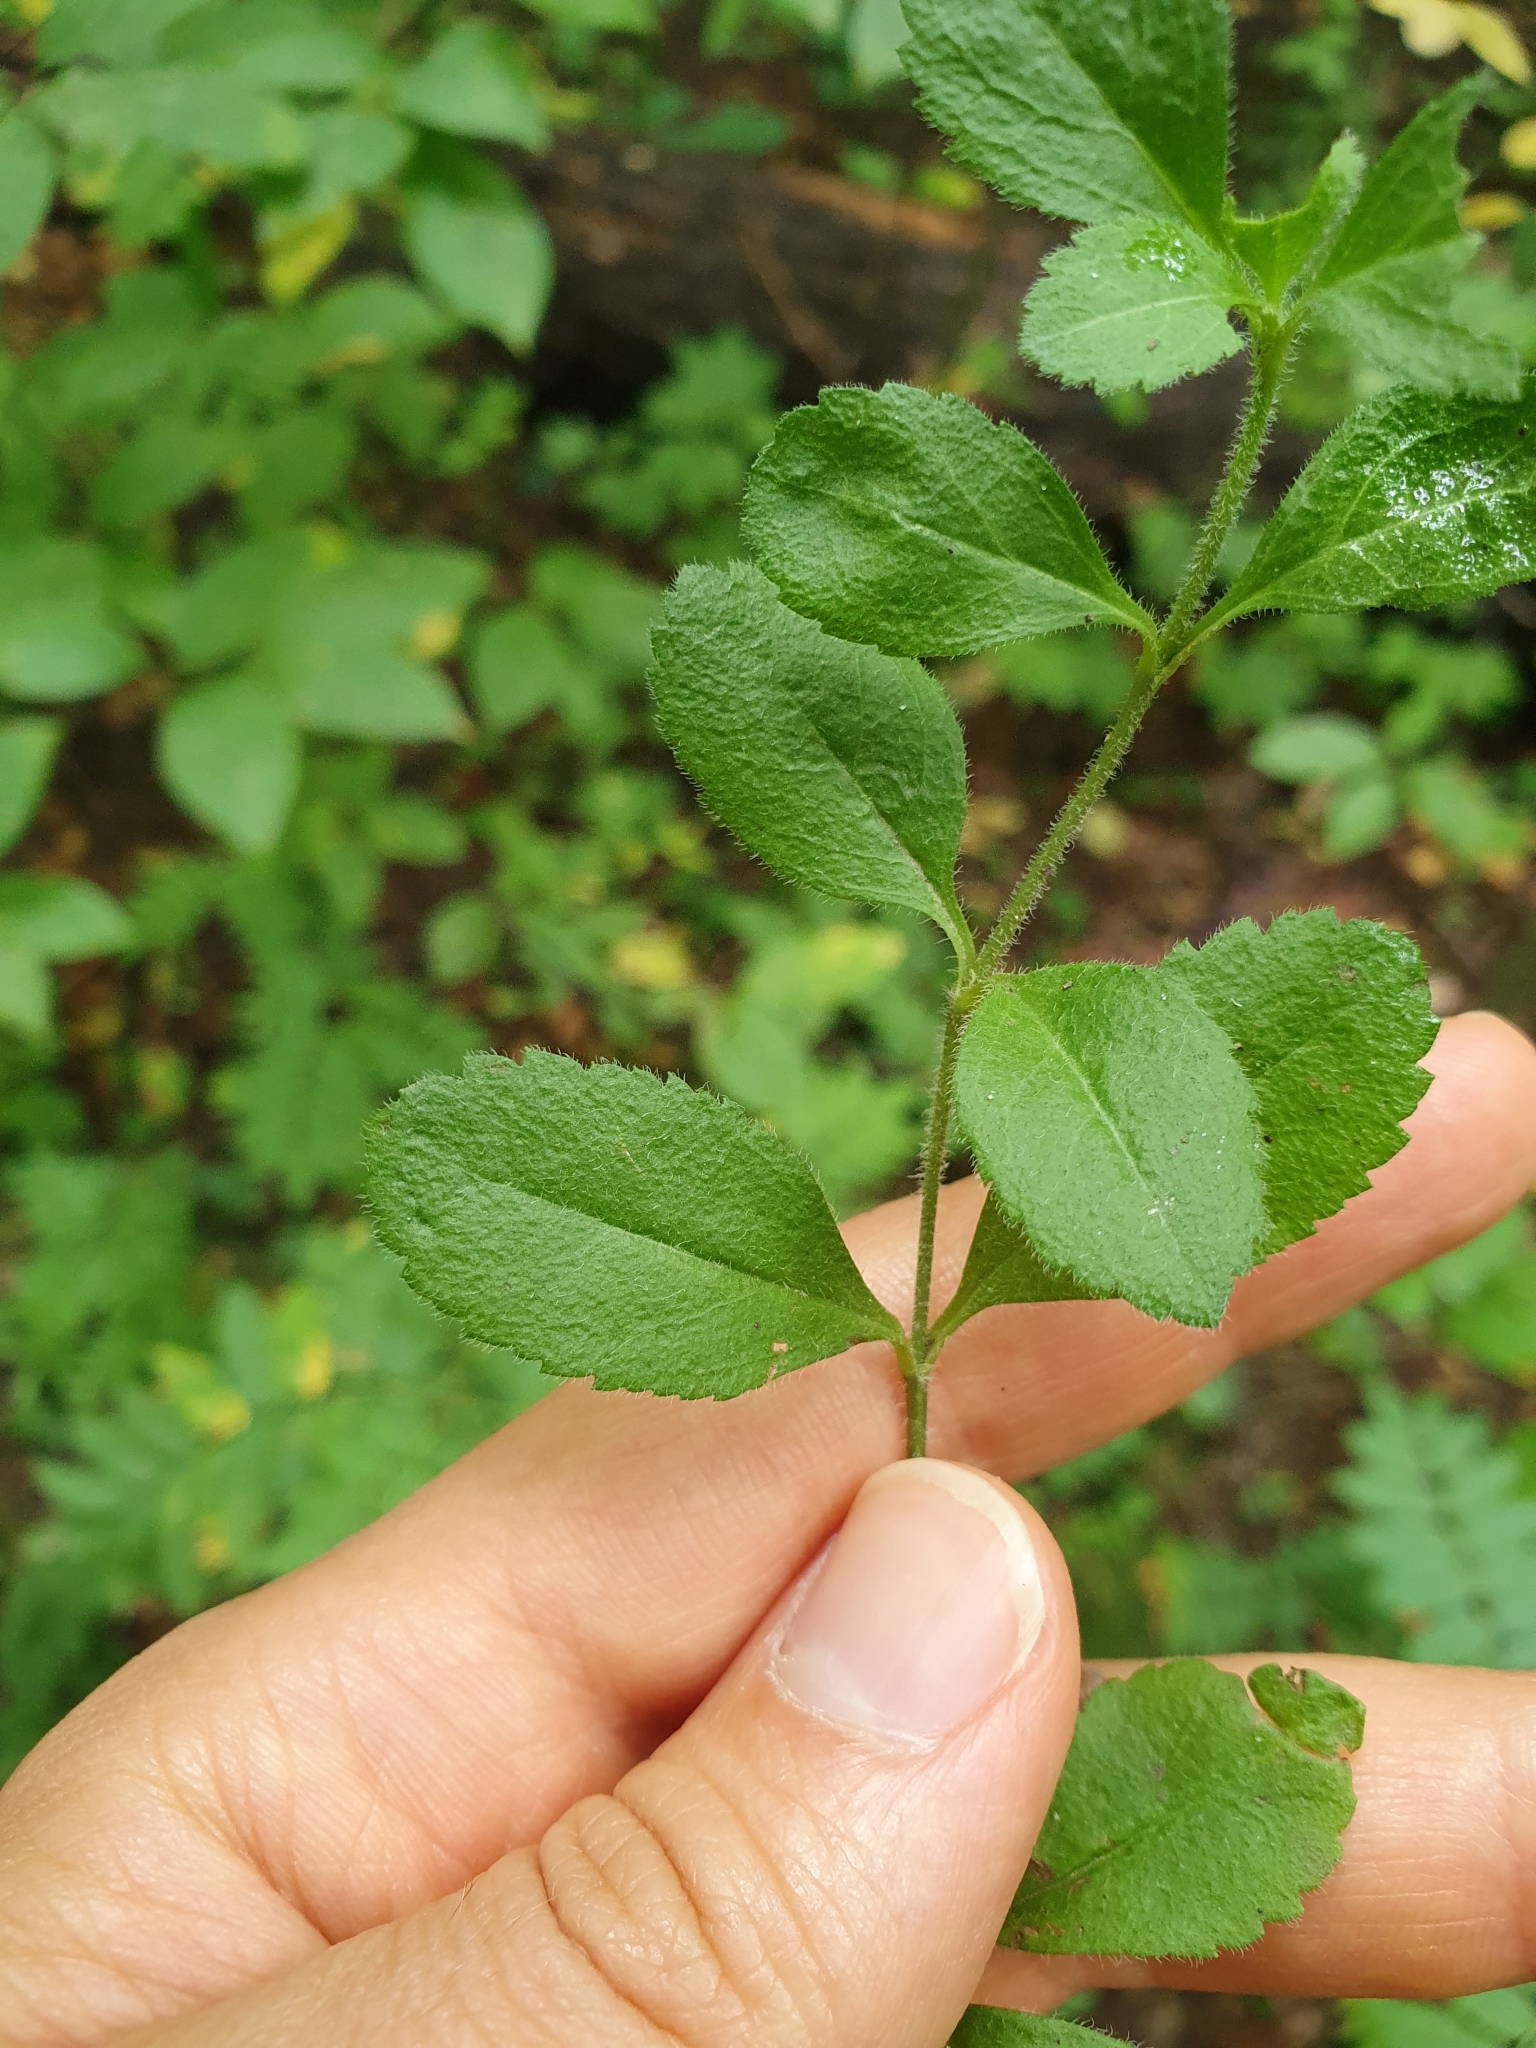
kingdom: Plantae
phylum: Tracheophyta
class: Magnoliopsida
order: Lamiales
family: Plantaginaceae
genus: Veronica
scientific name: Veronica officinalis
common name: Common speedwell
